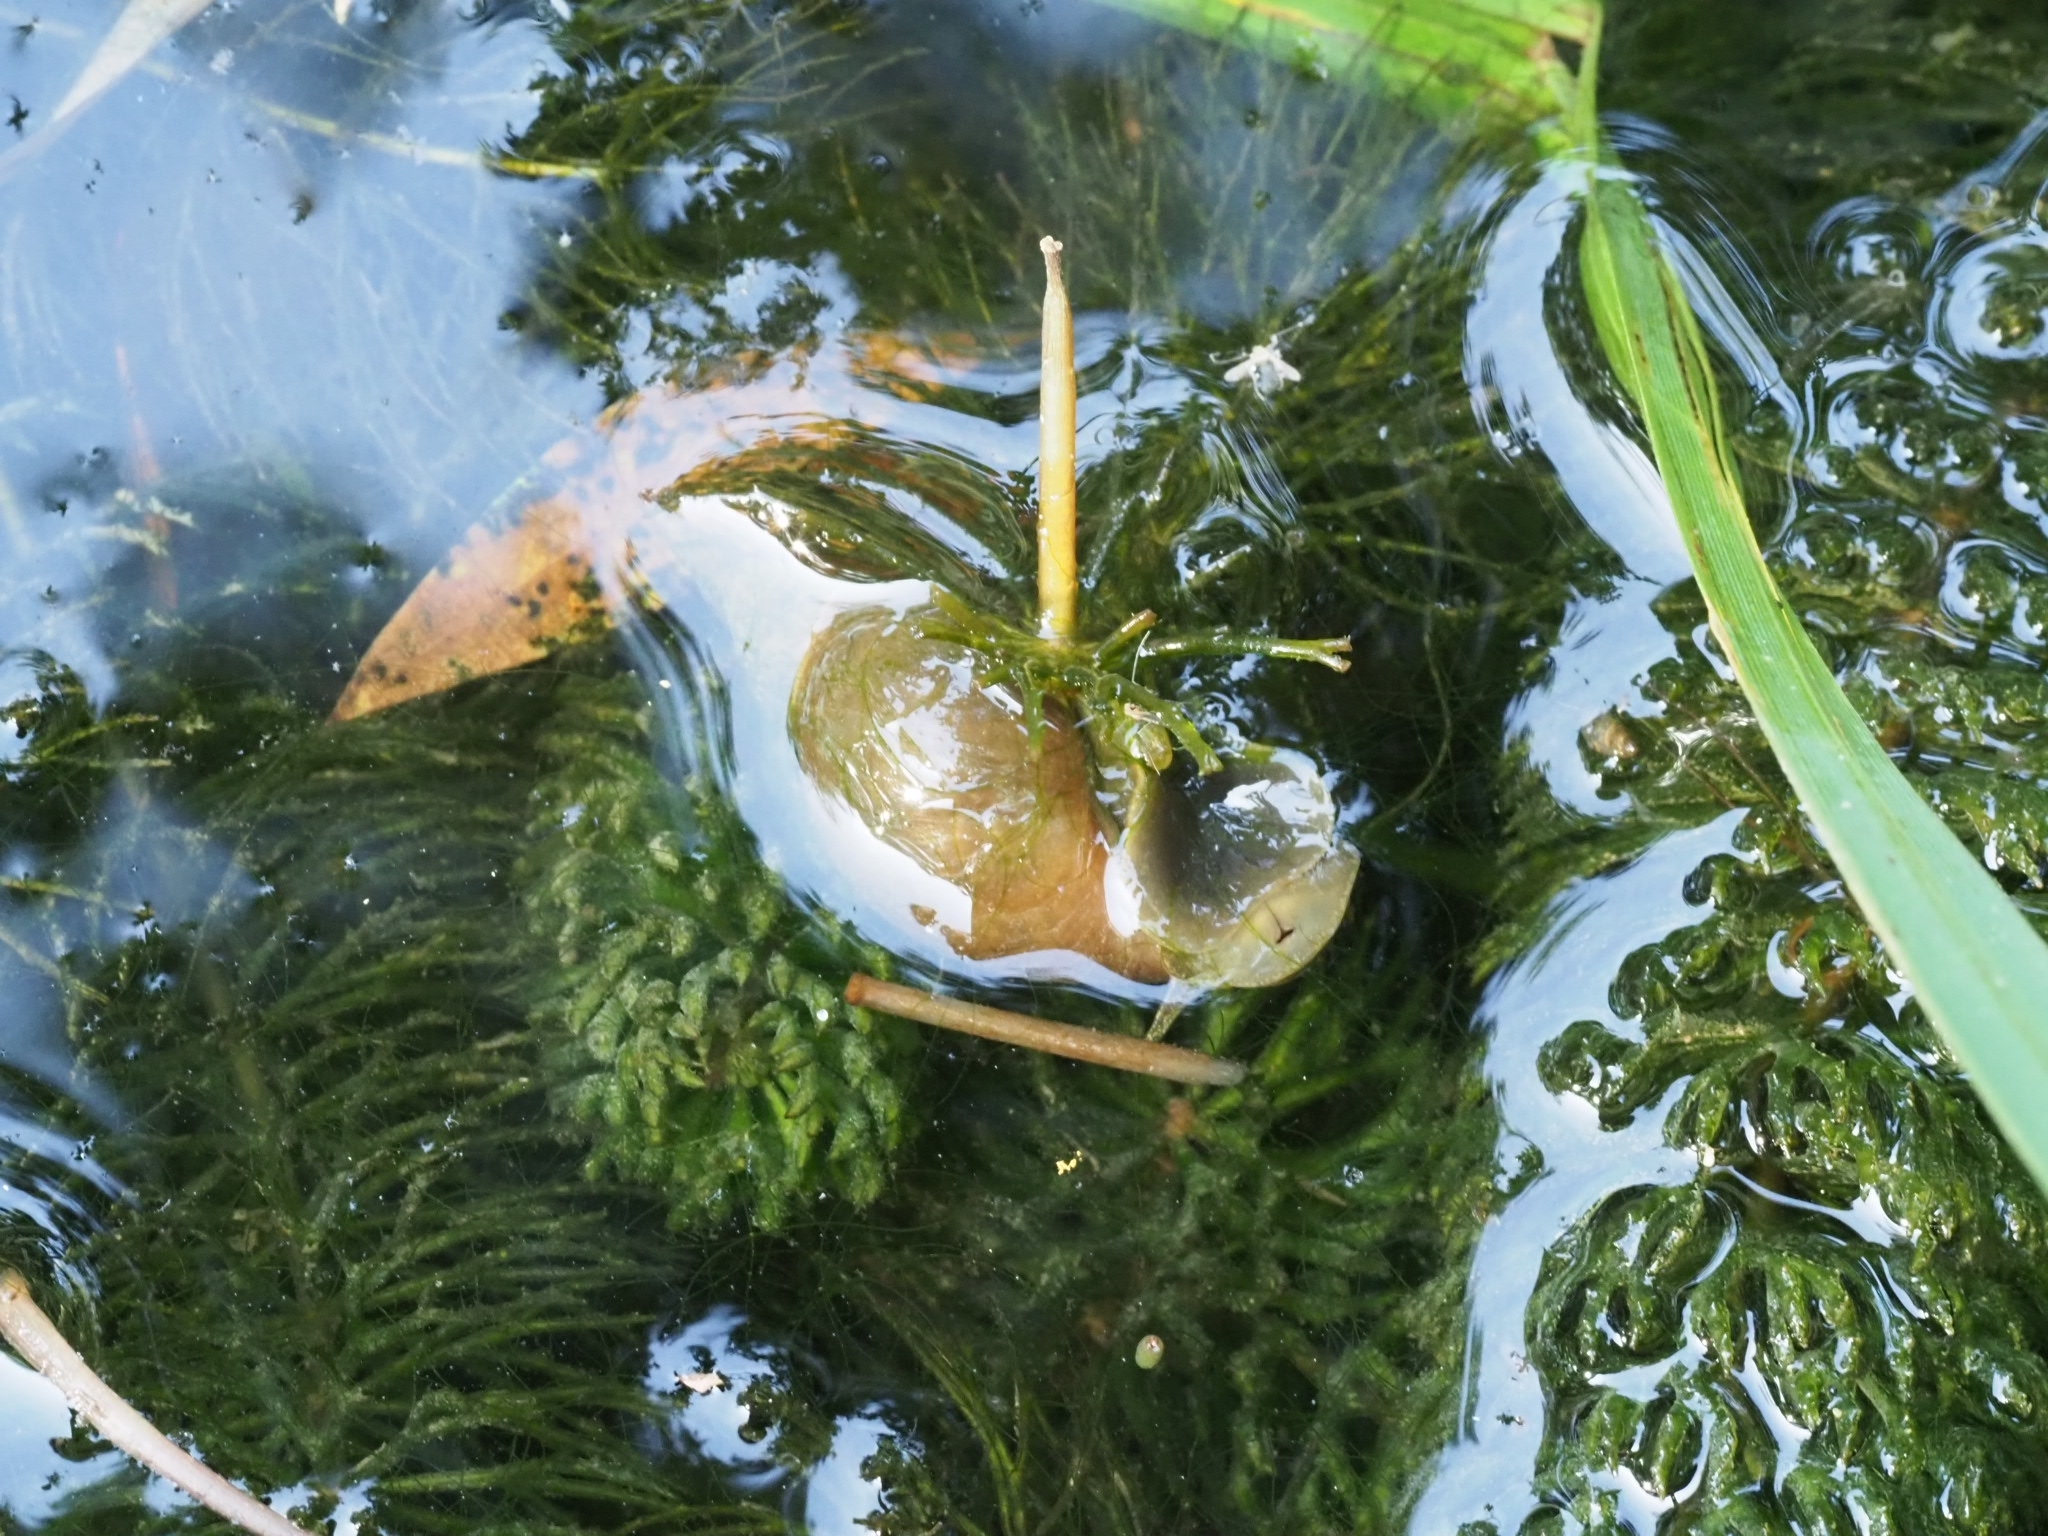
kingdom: Animalia
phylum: Mollusca
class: Gastropoda
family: Lymnaeidae
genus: Lymnaea
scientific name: Lymnaea stagnalis
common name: Great pond snail
